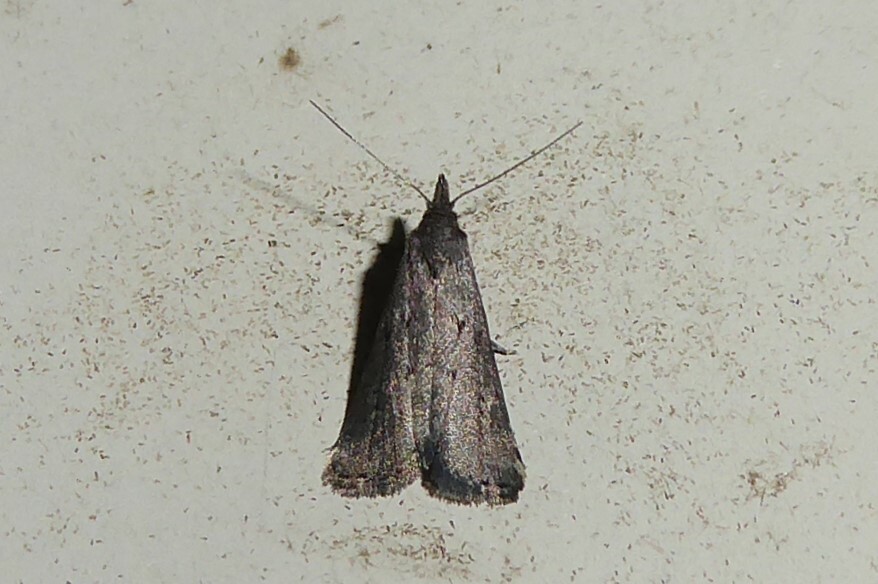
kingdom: Animalia
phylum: Arthropoda
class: Insecta
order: Lepidoptera
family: Erebidae
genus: Schrankia
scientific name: Schrankia capnophanes
